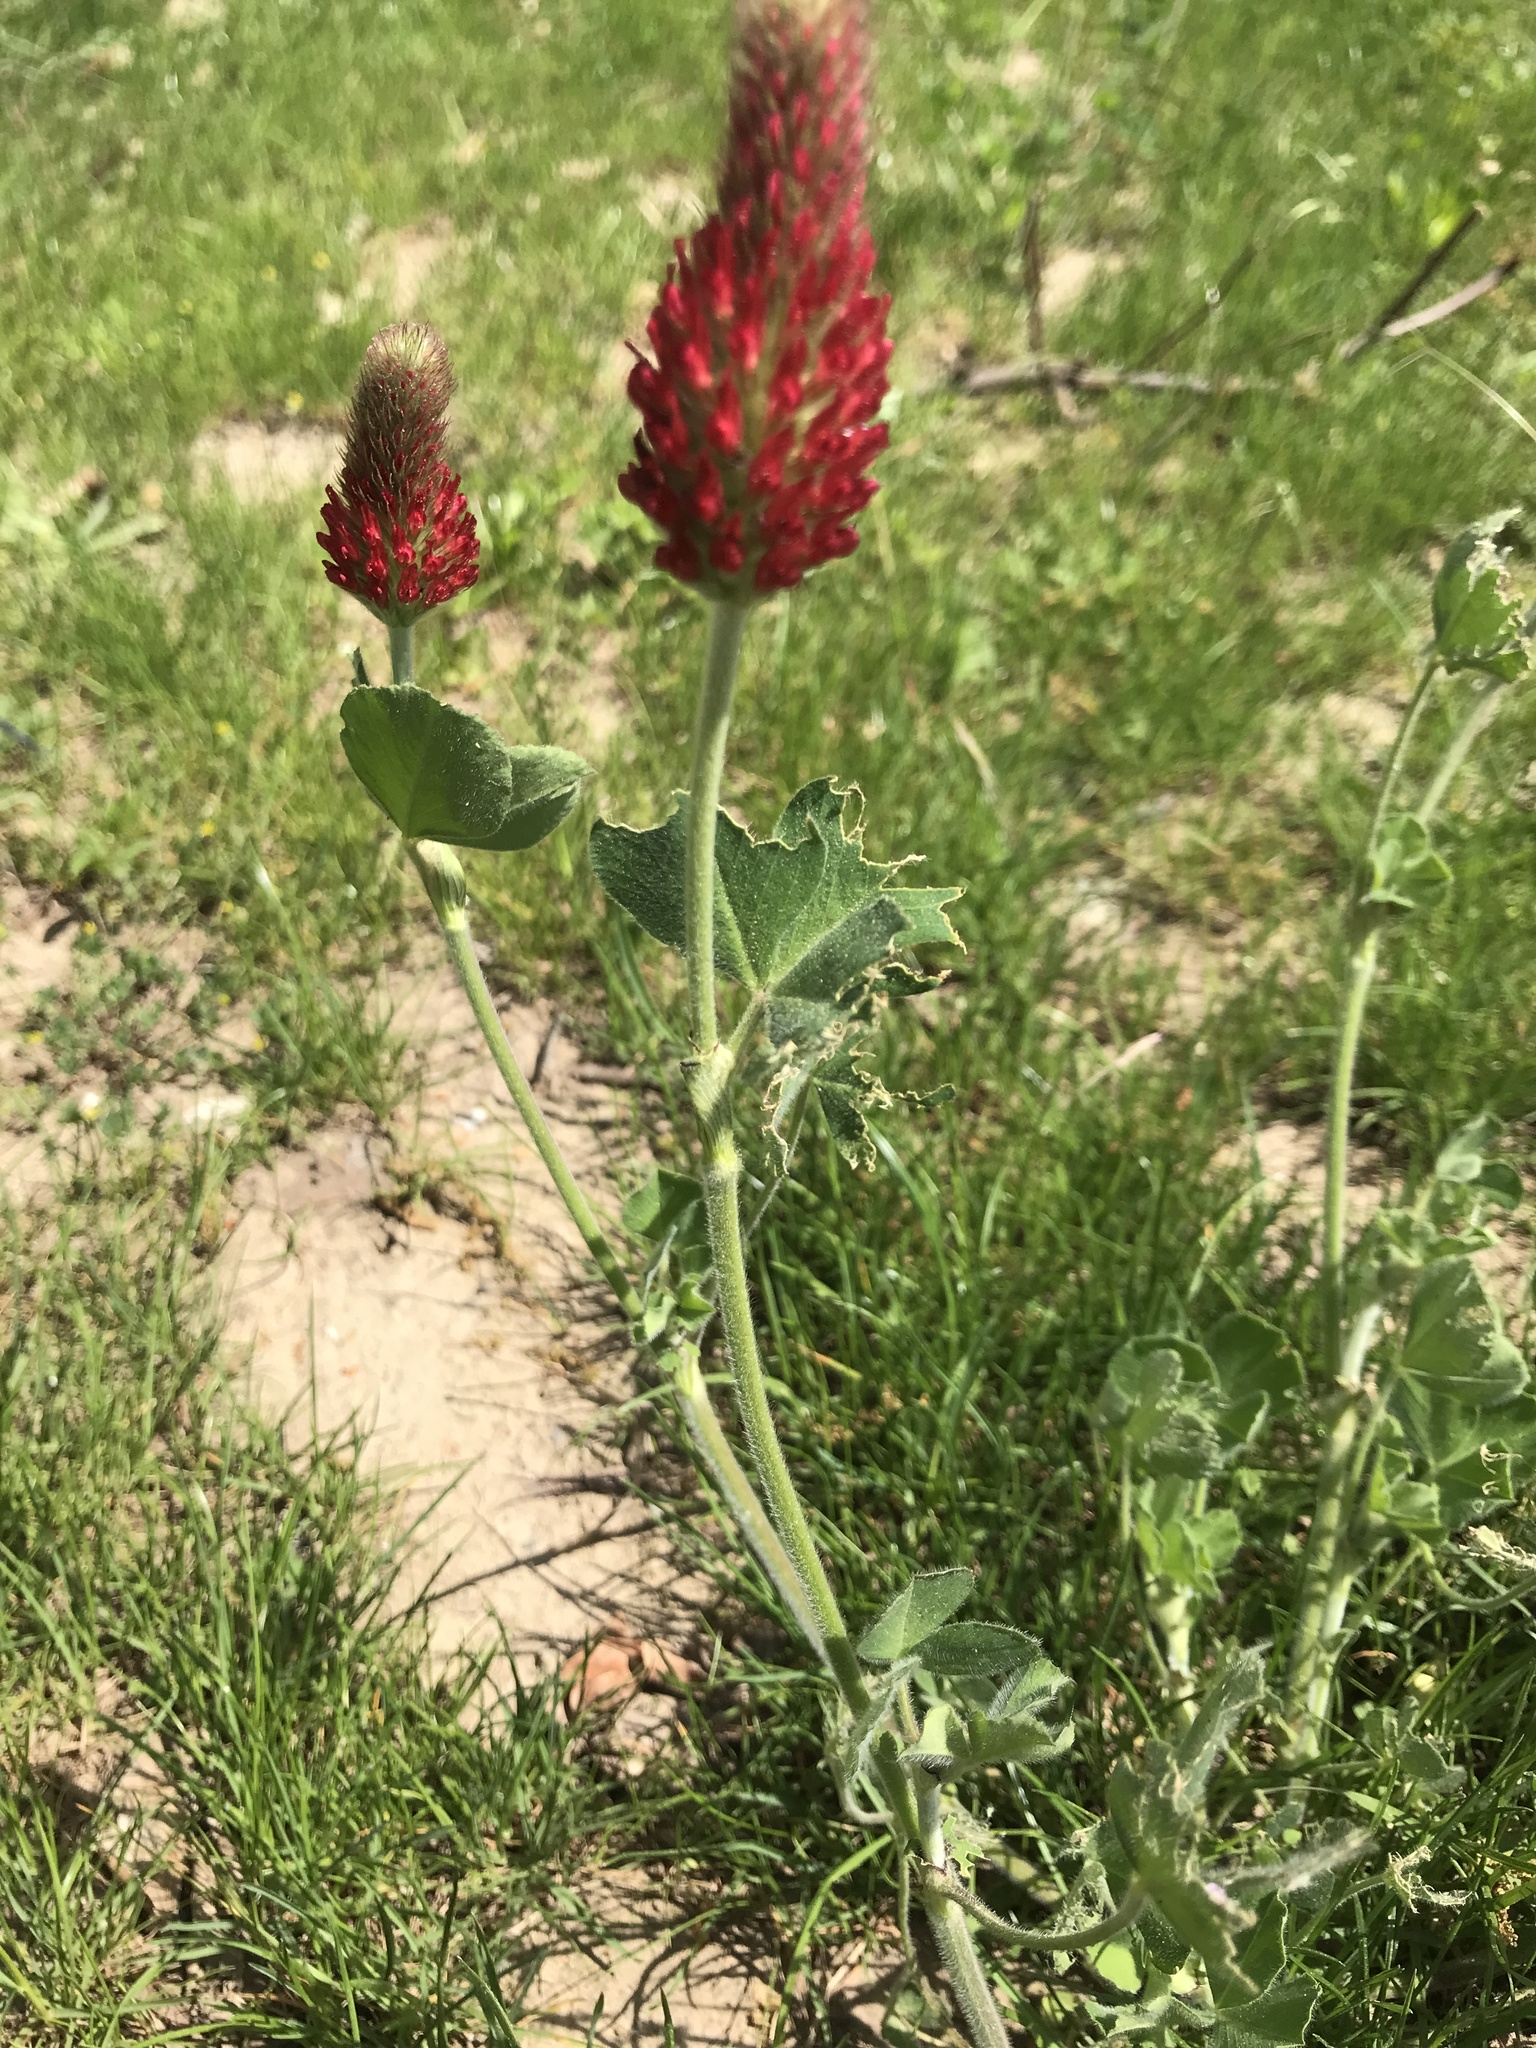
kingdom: Plantae
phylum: Tracheophyta
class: Magnoliopsida
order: Fabales
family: Fabaceae
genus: Trifolium
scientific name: Trifolium incarnatum
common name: Crimson clover
